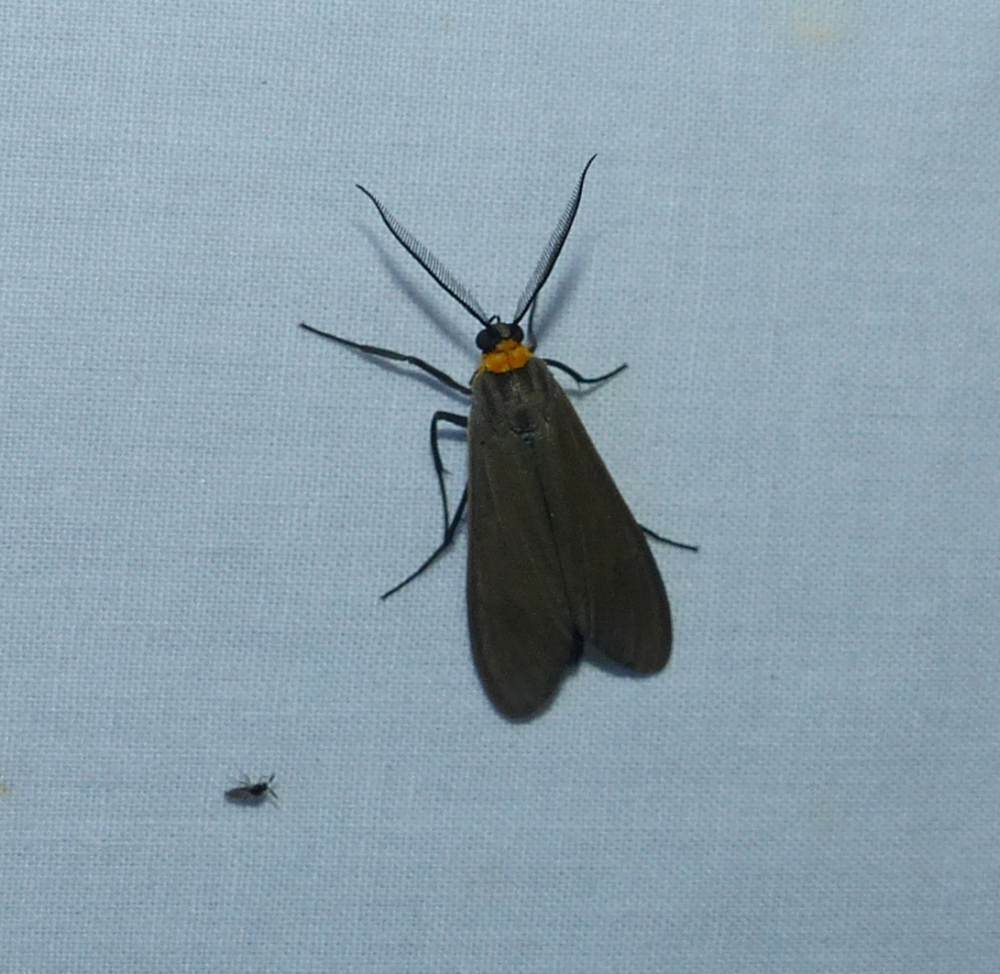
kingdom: Animalia
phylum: Arthropoda
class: Insecta
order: Lepidoptera
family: Erebidae
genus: Cisseps
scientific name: Cisseps fulvicollis
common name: Yellow-collared scape moth
